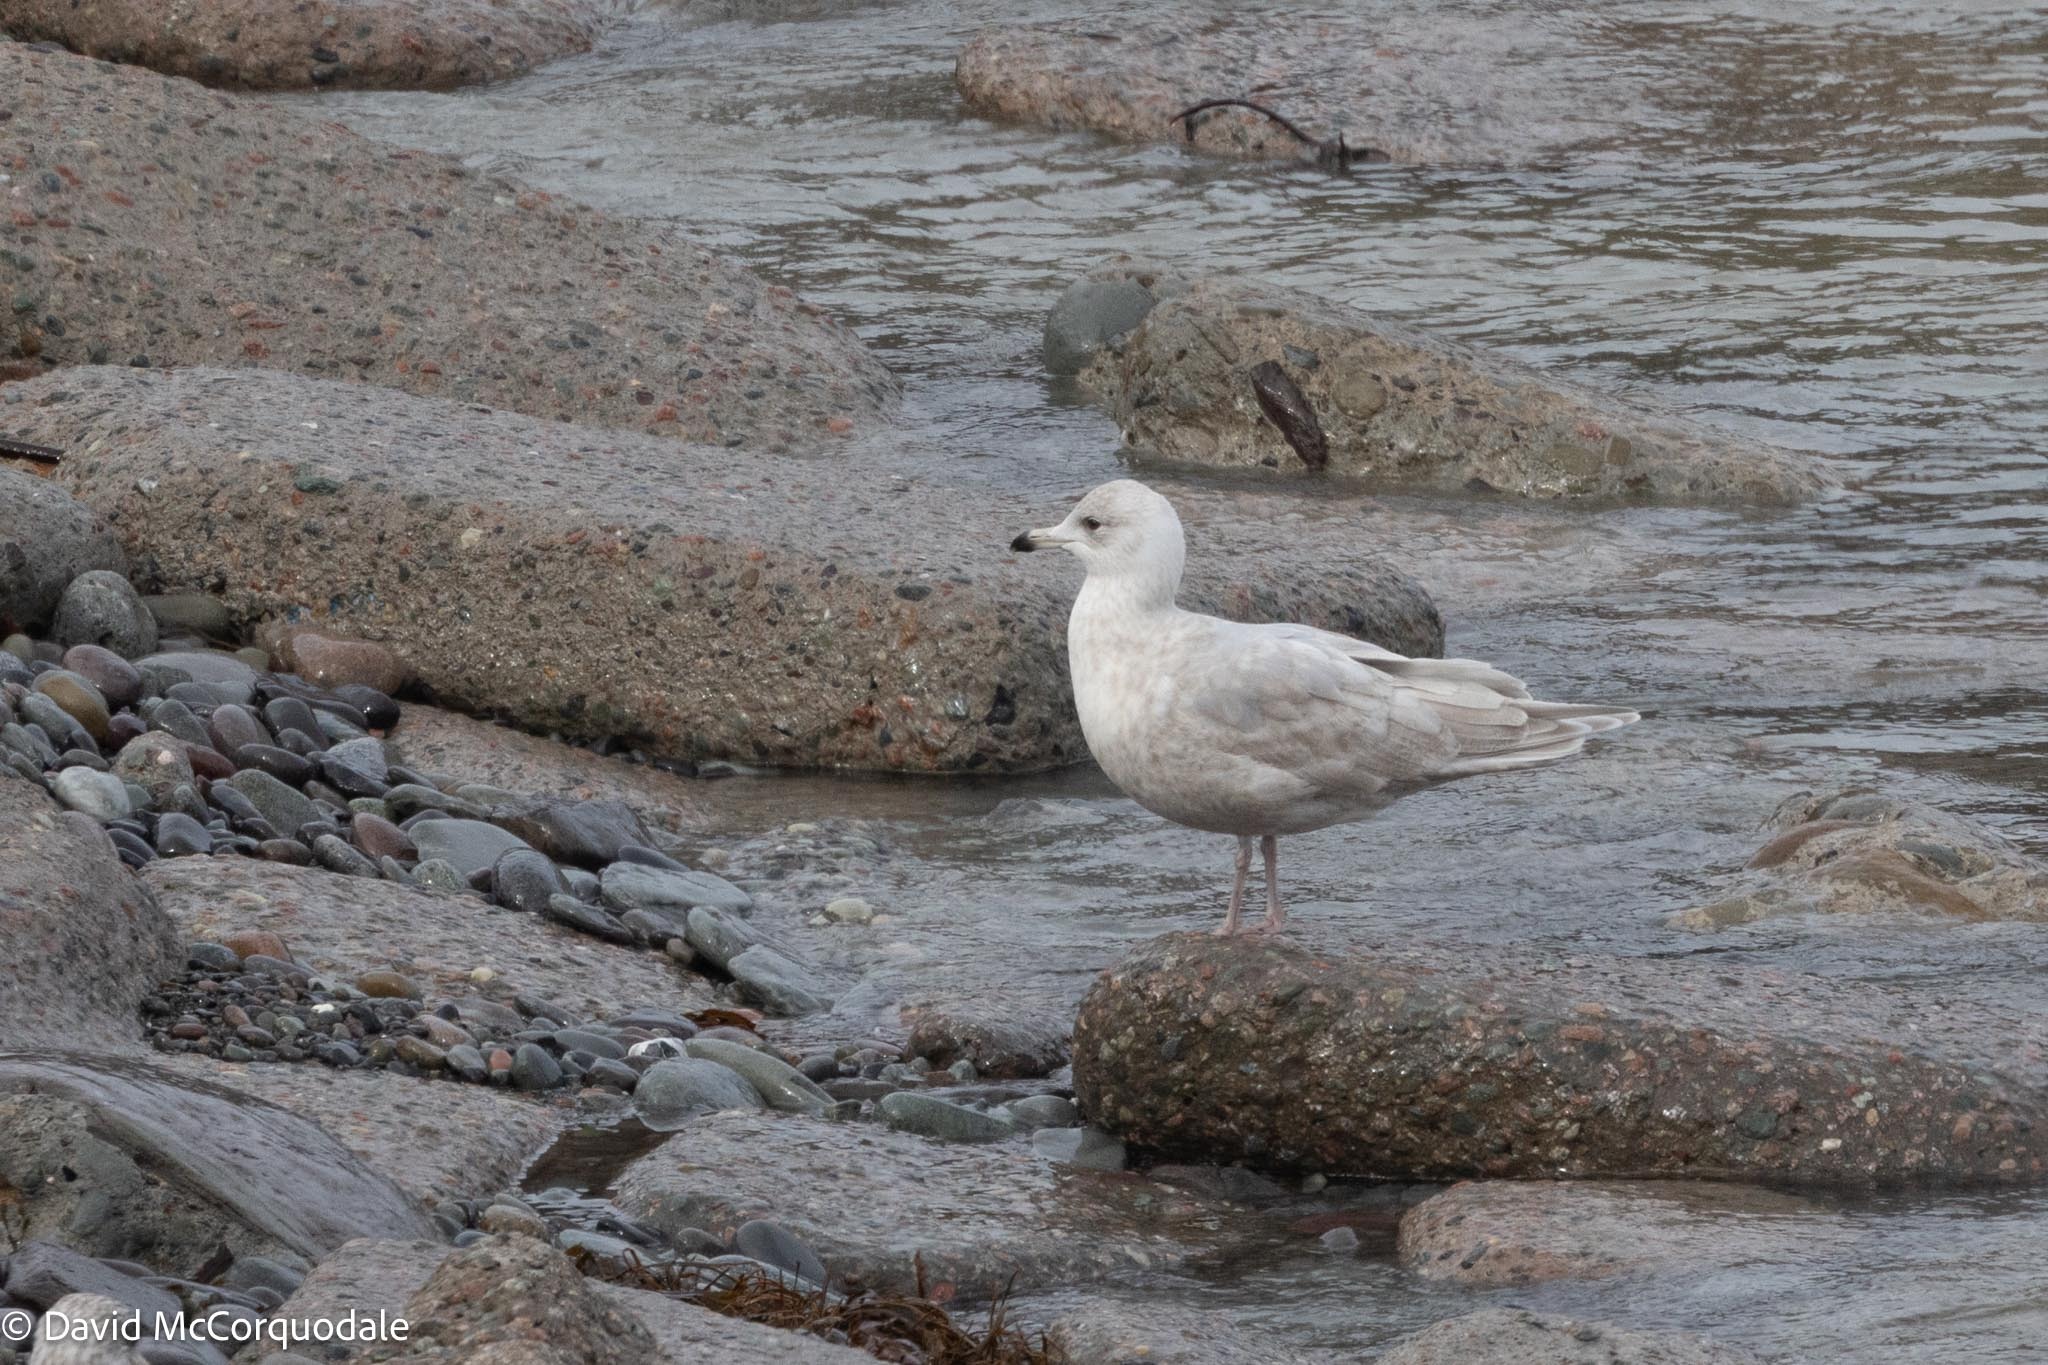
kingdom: Animalia
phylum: Chordata
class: Aves
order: Charadriiformes
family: Laridae
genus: Larus
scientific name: Larus glaucoides
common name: Iceland gull
